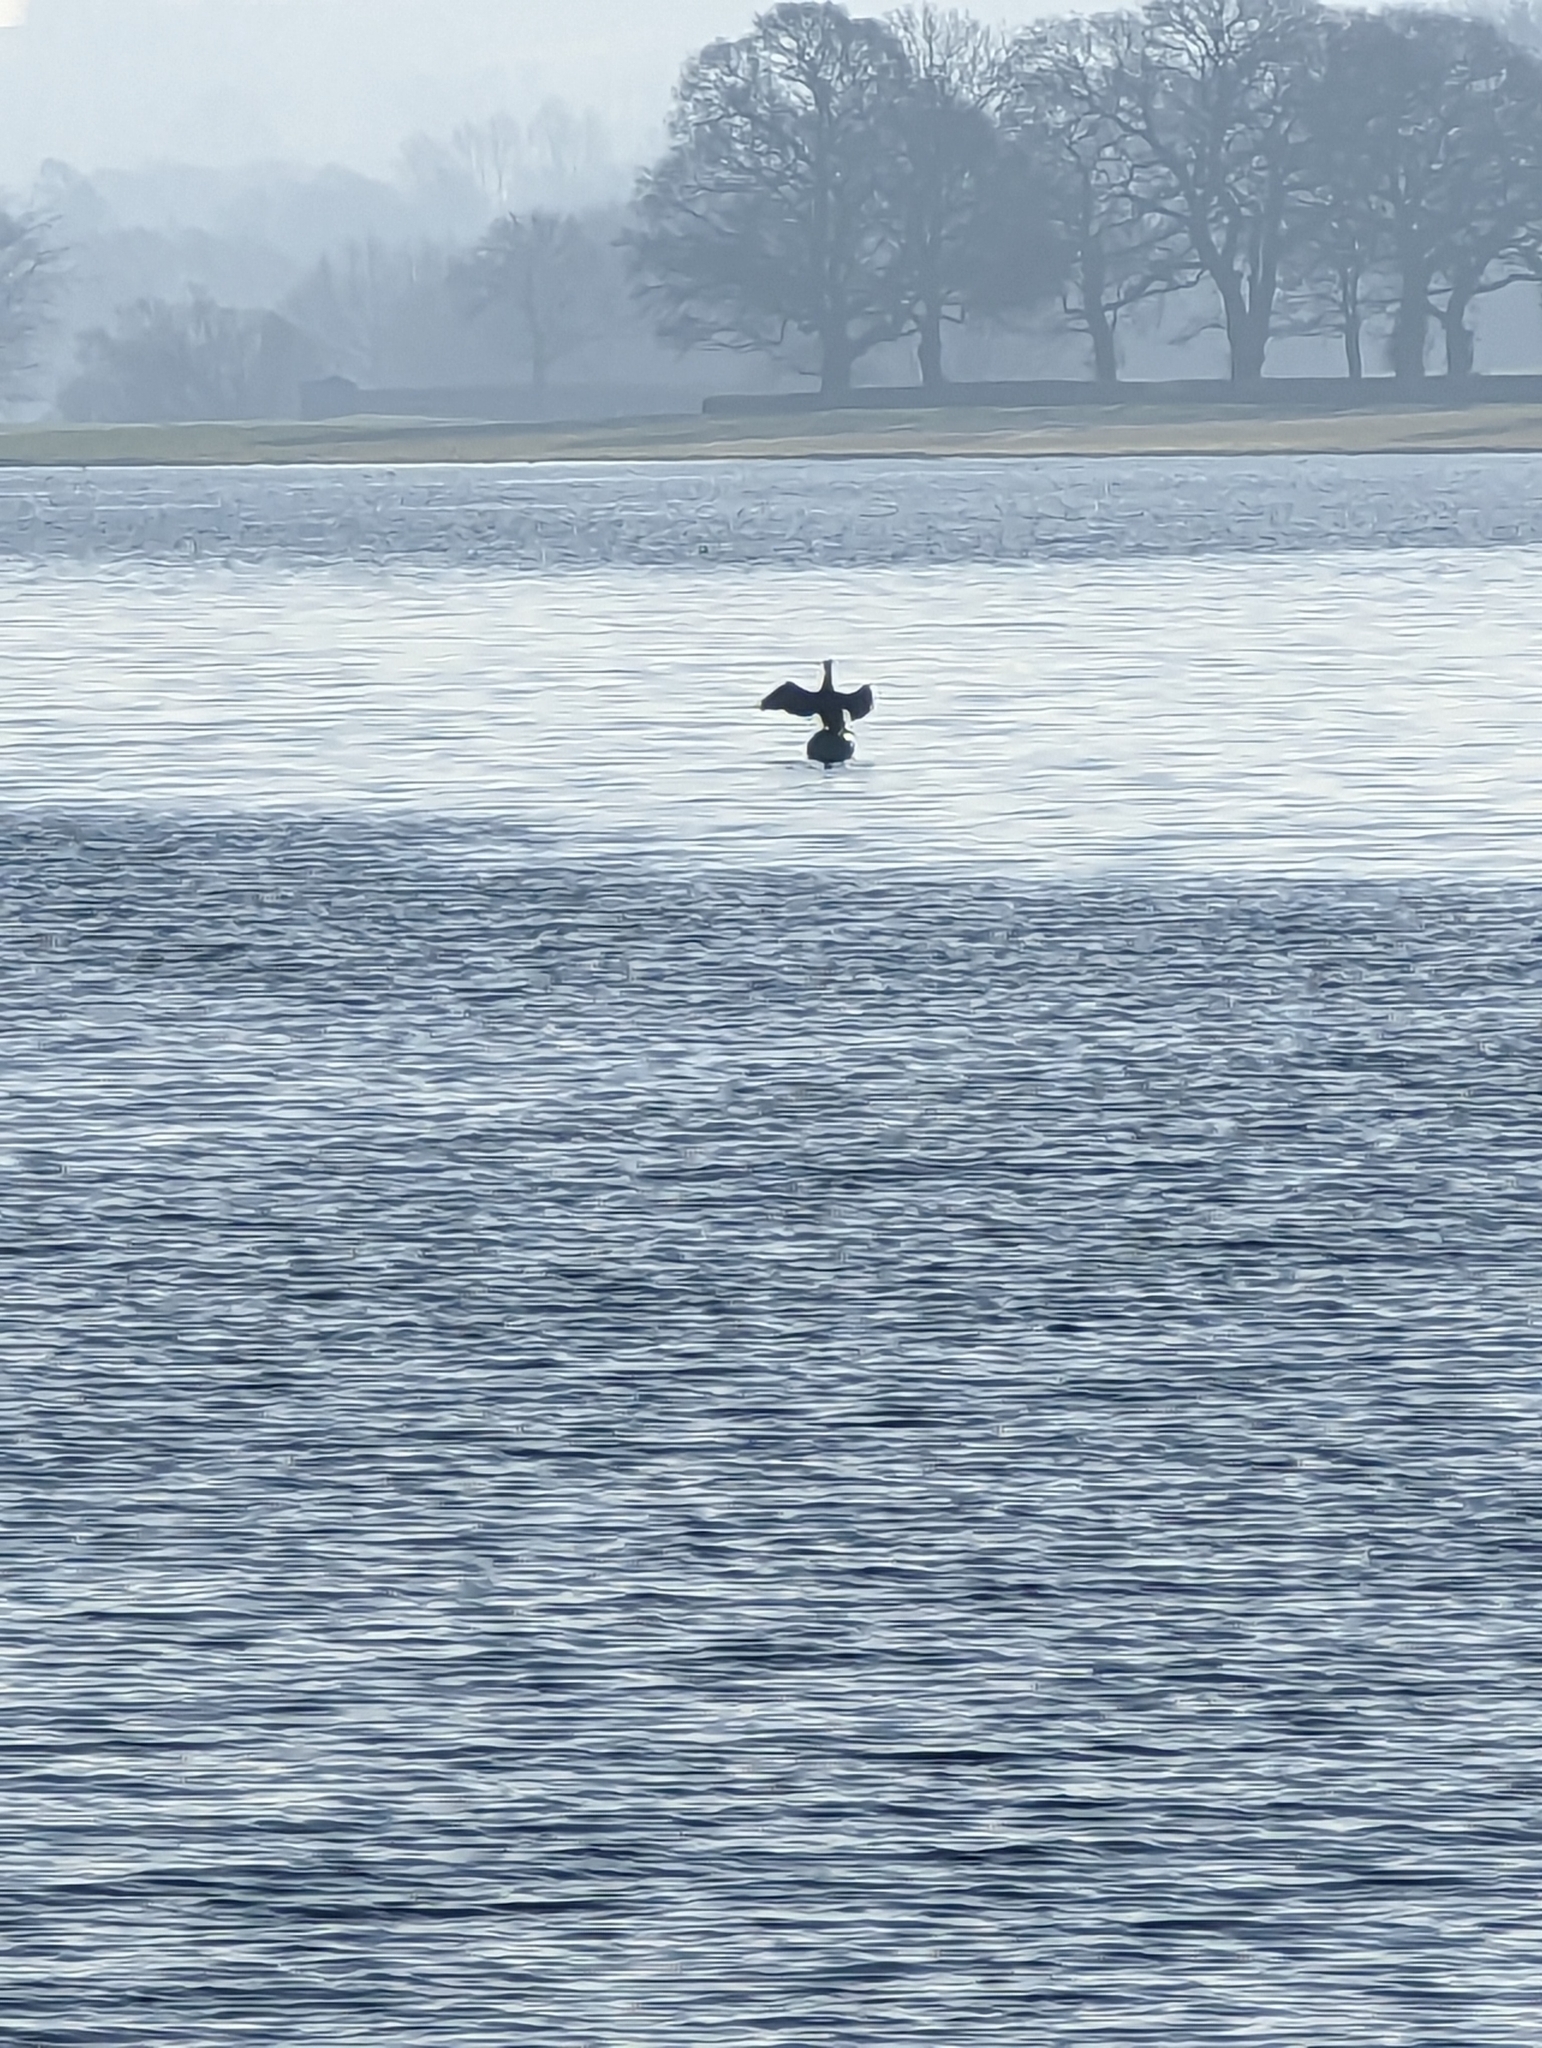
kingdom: Animalia
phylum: Chordata
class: Aves
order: Suliformes
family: Phalacrocoracidae
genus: Phalacrocorax
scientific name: Phalacrocorax carbo
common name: Great cormorant
